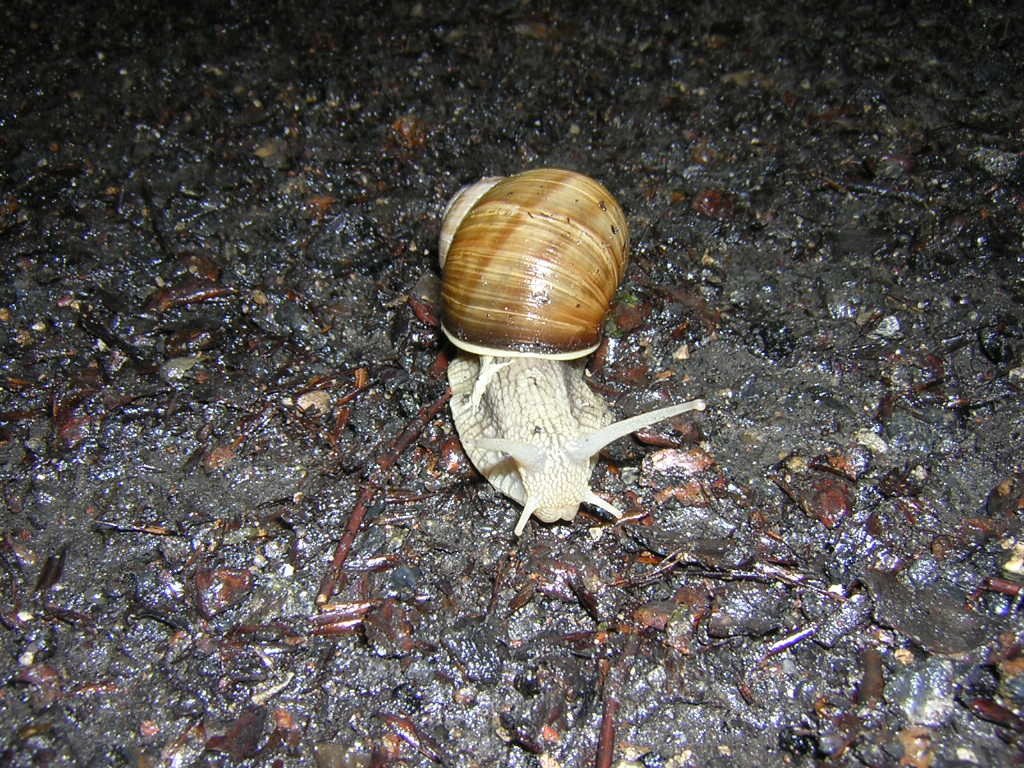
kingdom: Animalia
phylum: Mollusca
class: Gastropoda
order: Stylommatophora
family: Helicidae
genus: Helix
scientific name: Helix pomatia
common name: Roman snail
